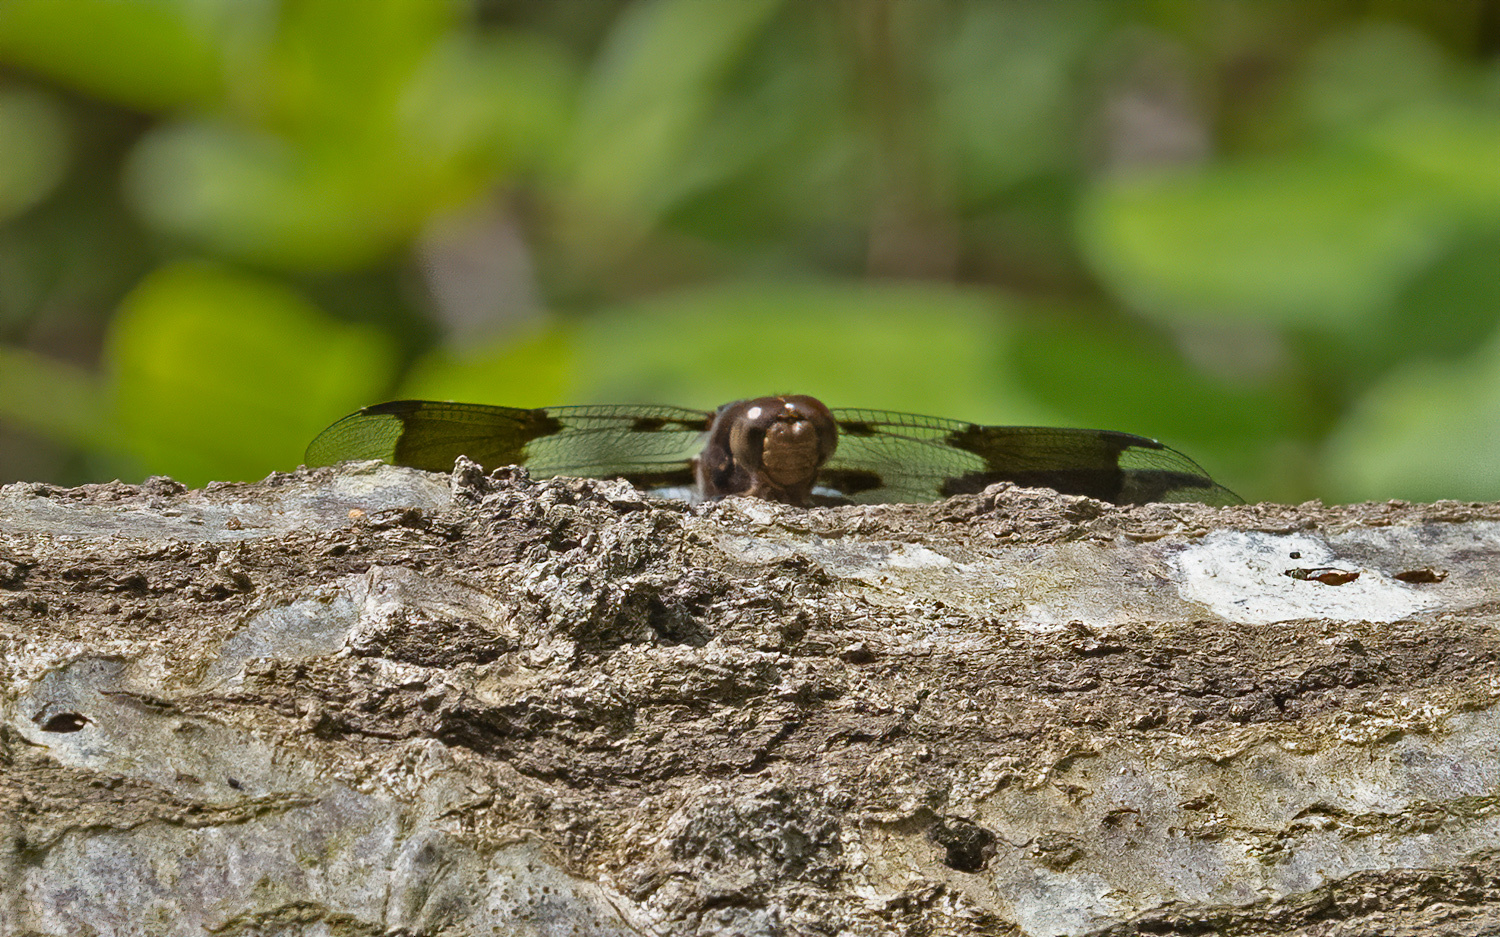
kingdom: Animalia
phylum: Arthropoda
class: Insecta
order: Odonata
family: Libellulidae
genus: Plathemis
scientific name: Plathemis lydia
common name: Common whitetail
